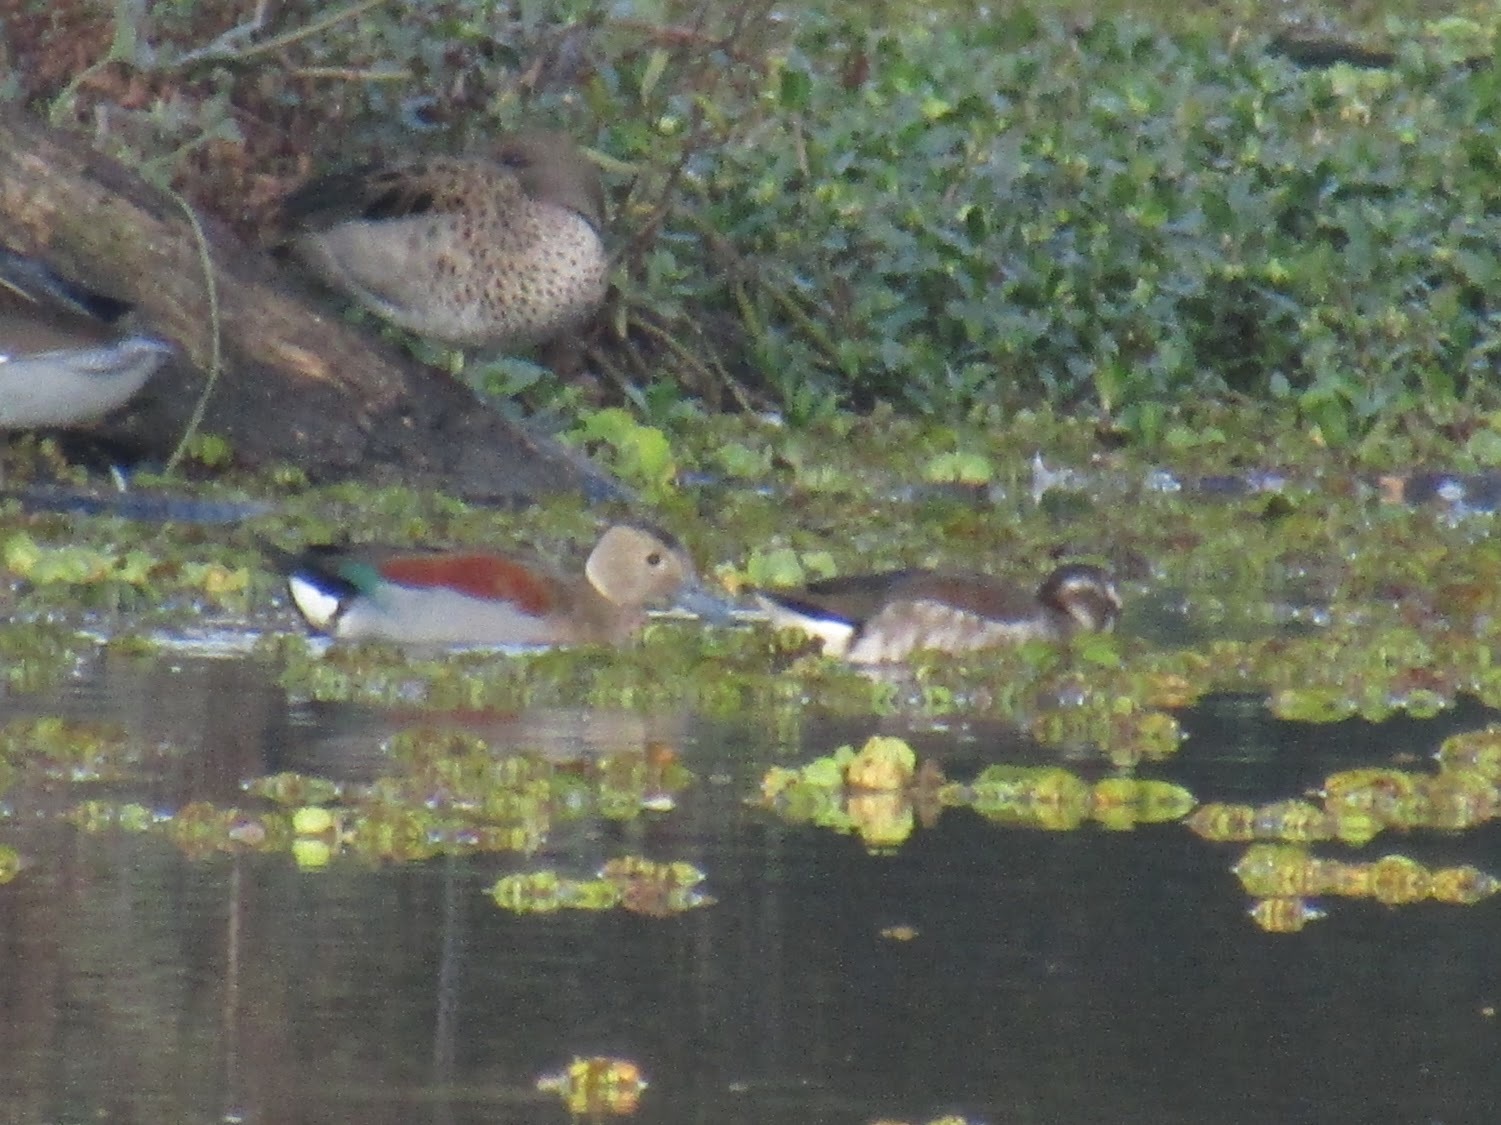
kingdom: Animalia
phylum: Chordata
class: Aves
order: Anseriformes
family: Anatidae
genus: Callonetta
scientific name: Callonetta leucophrys
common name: Ringed teal
